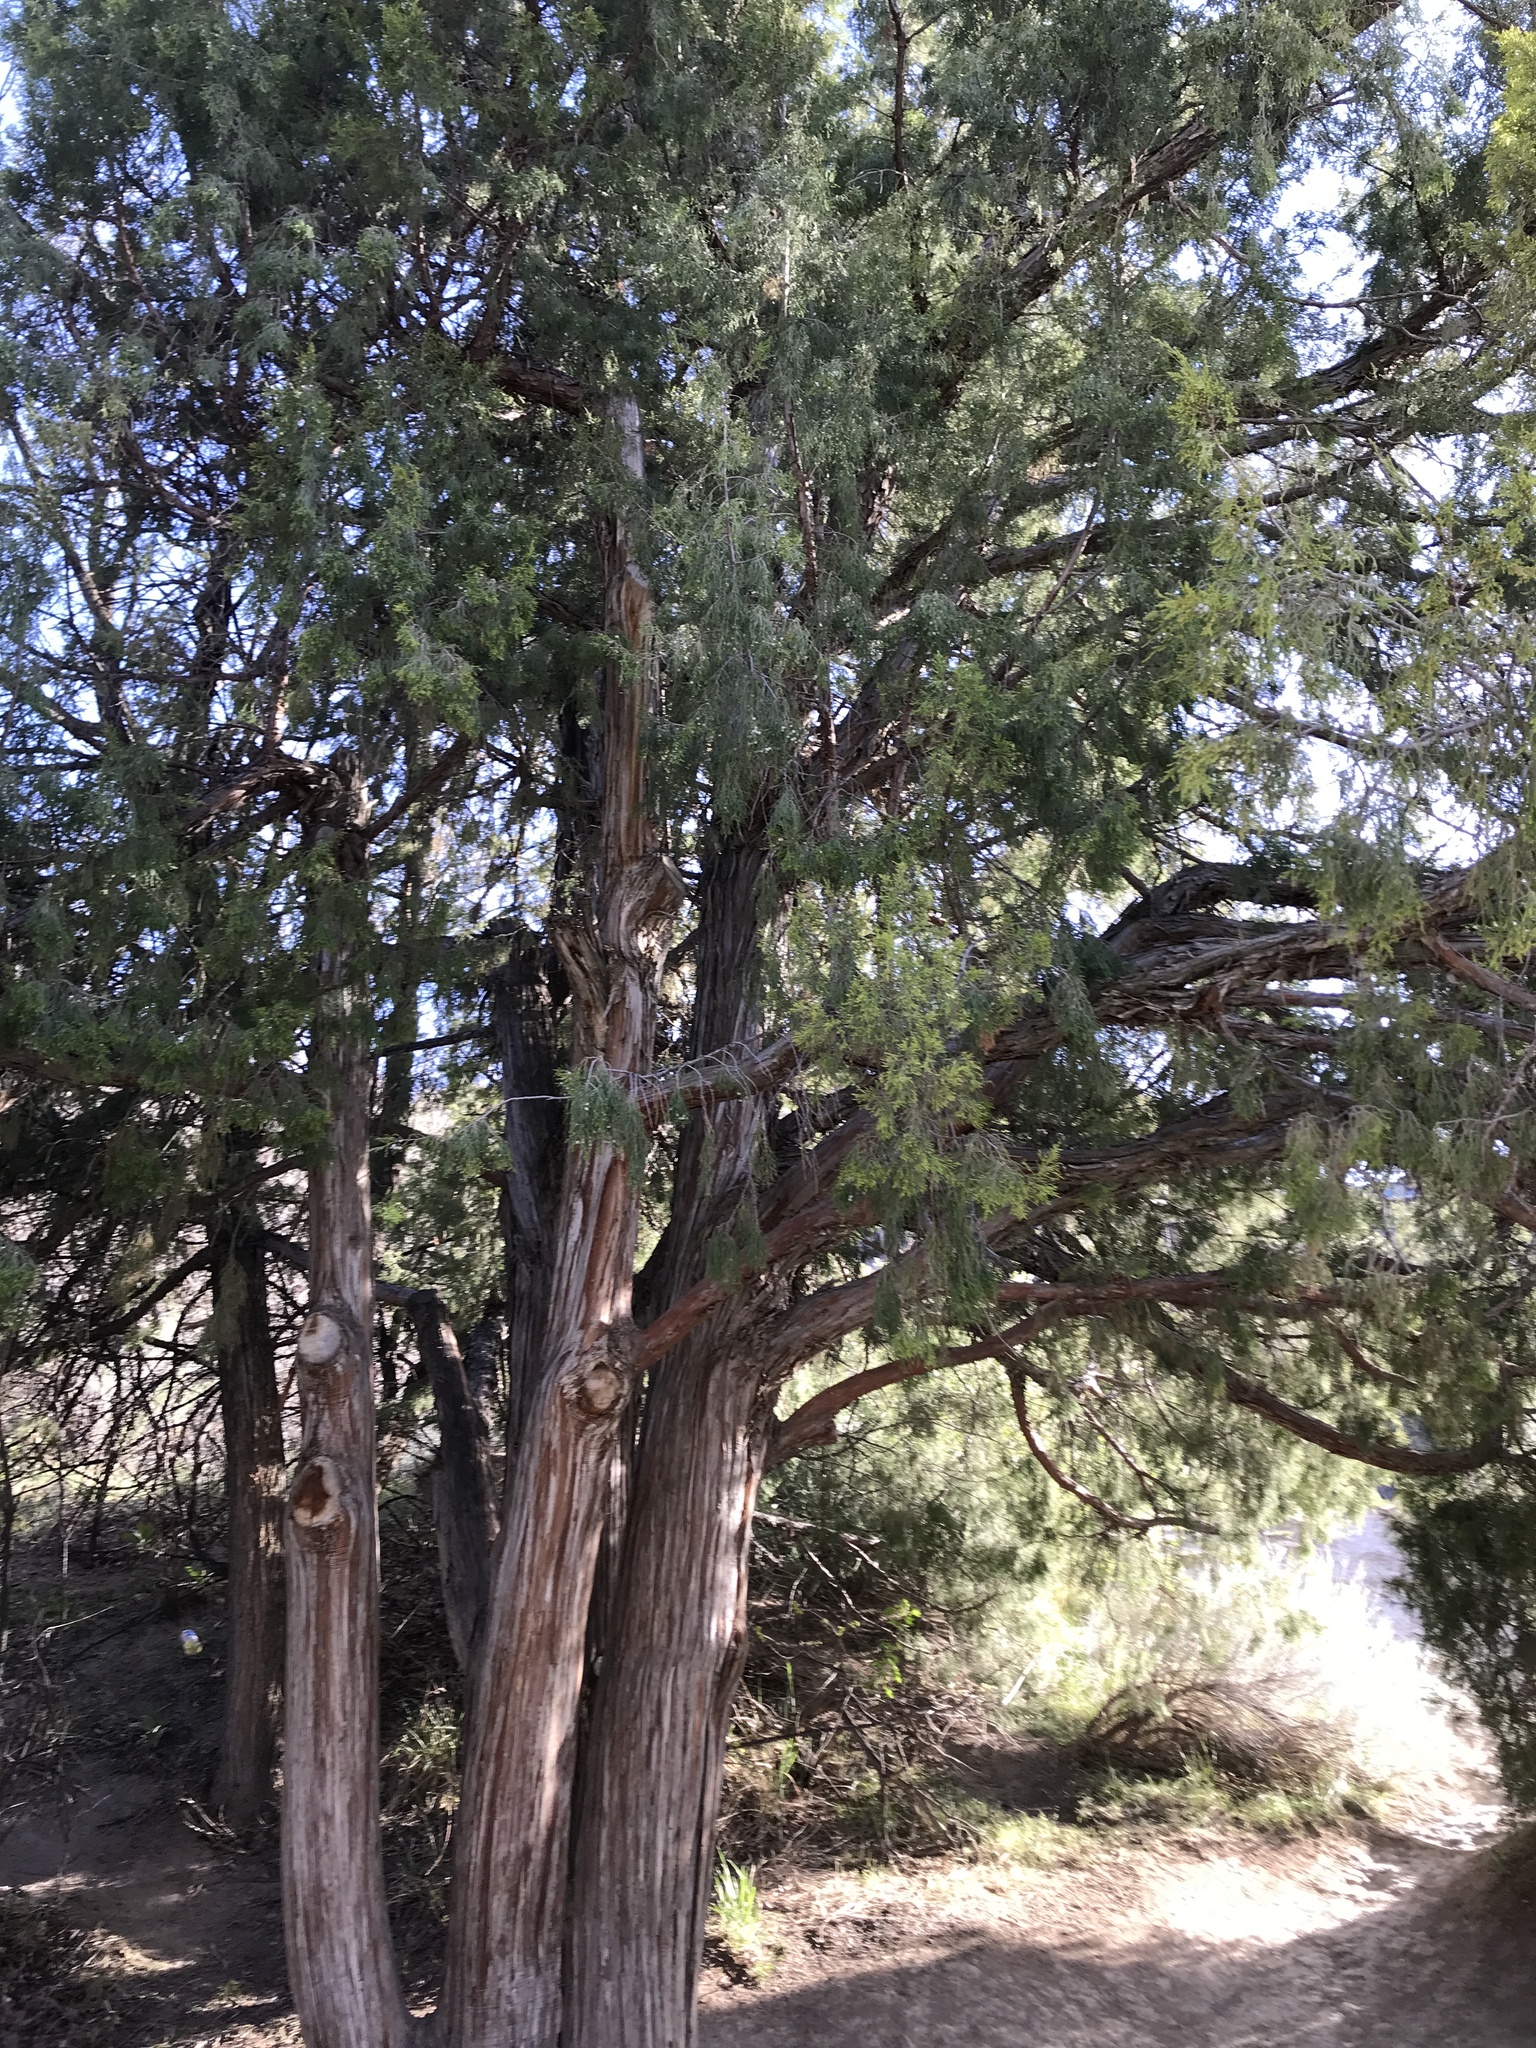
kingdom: Plantae
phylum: Tracheophyta
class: Pinopsida
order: Pinales
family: Cupressaceae
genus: Juniperus
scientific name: Juniperus scopulorum
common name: Rocky mountain juniper
